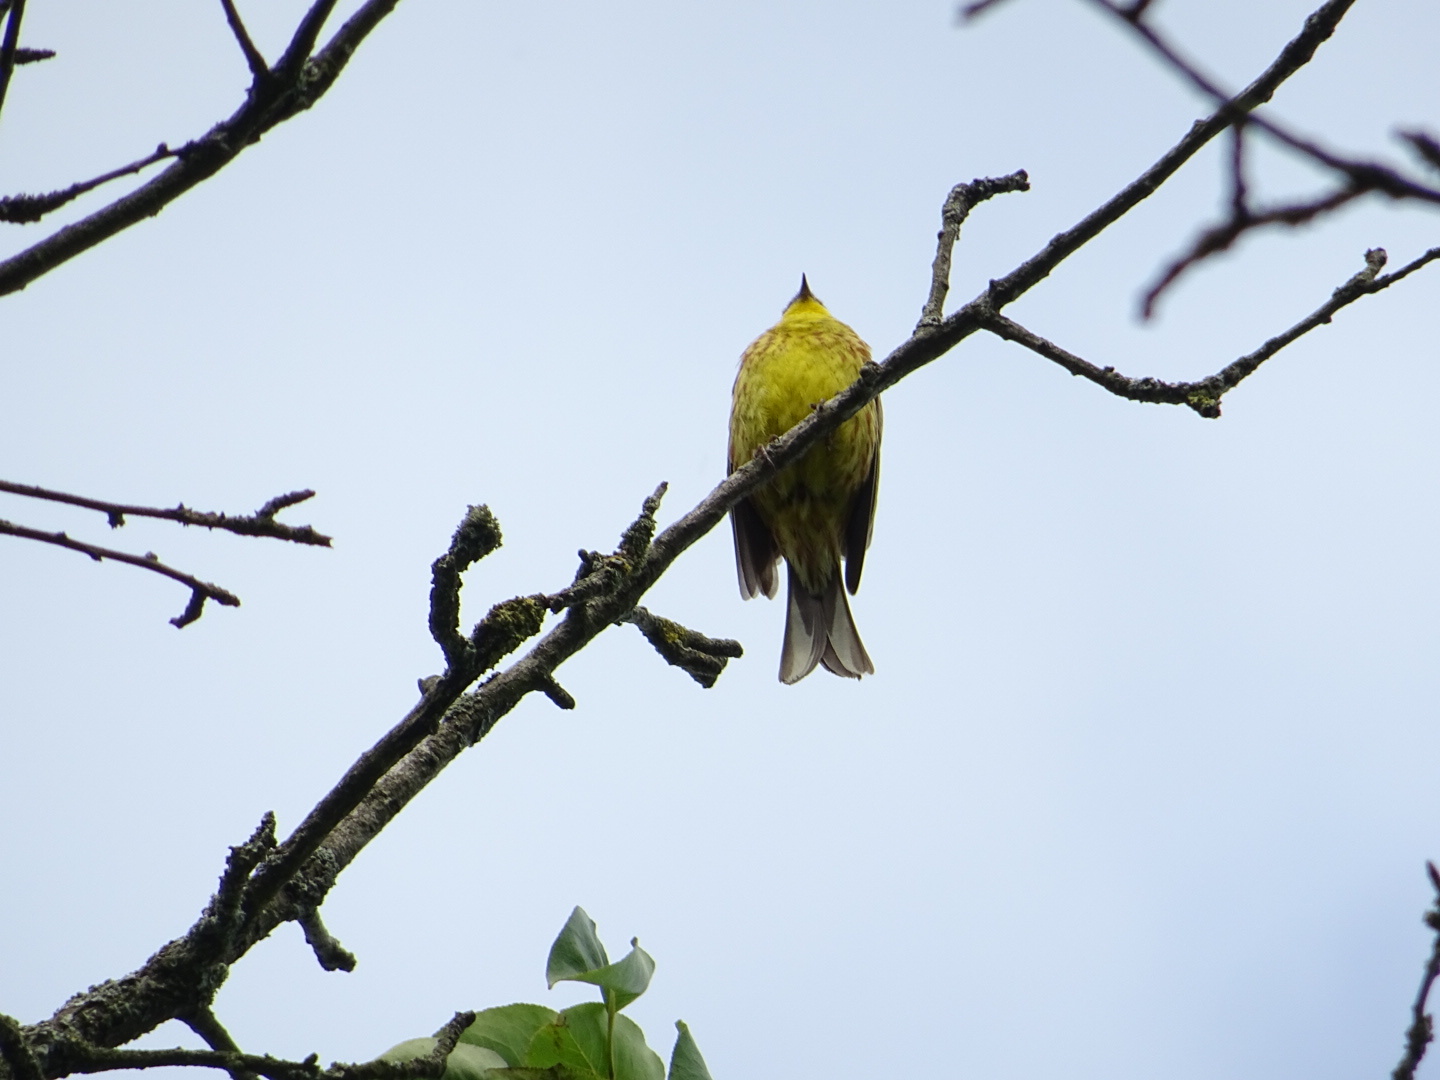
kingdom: Animalia
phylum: Chordata
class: Aves
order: Passeriformes
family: Emberizidae
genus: Emberiza
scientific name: Emberiza citrinella
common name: Yellowhammer
